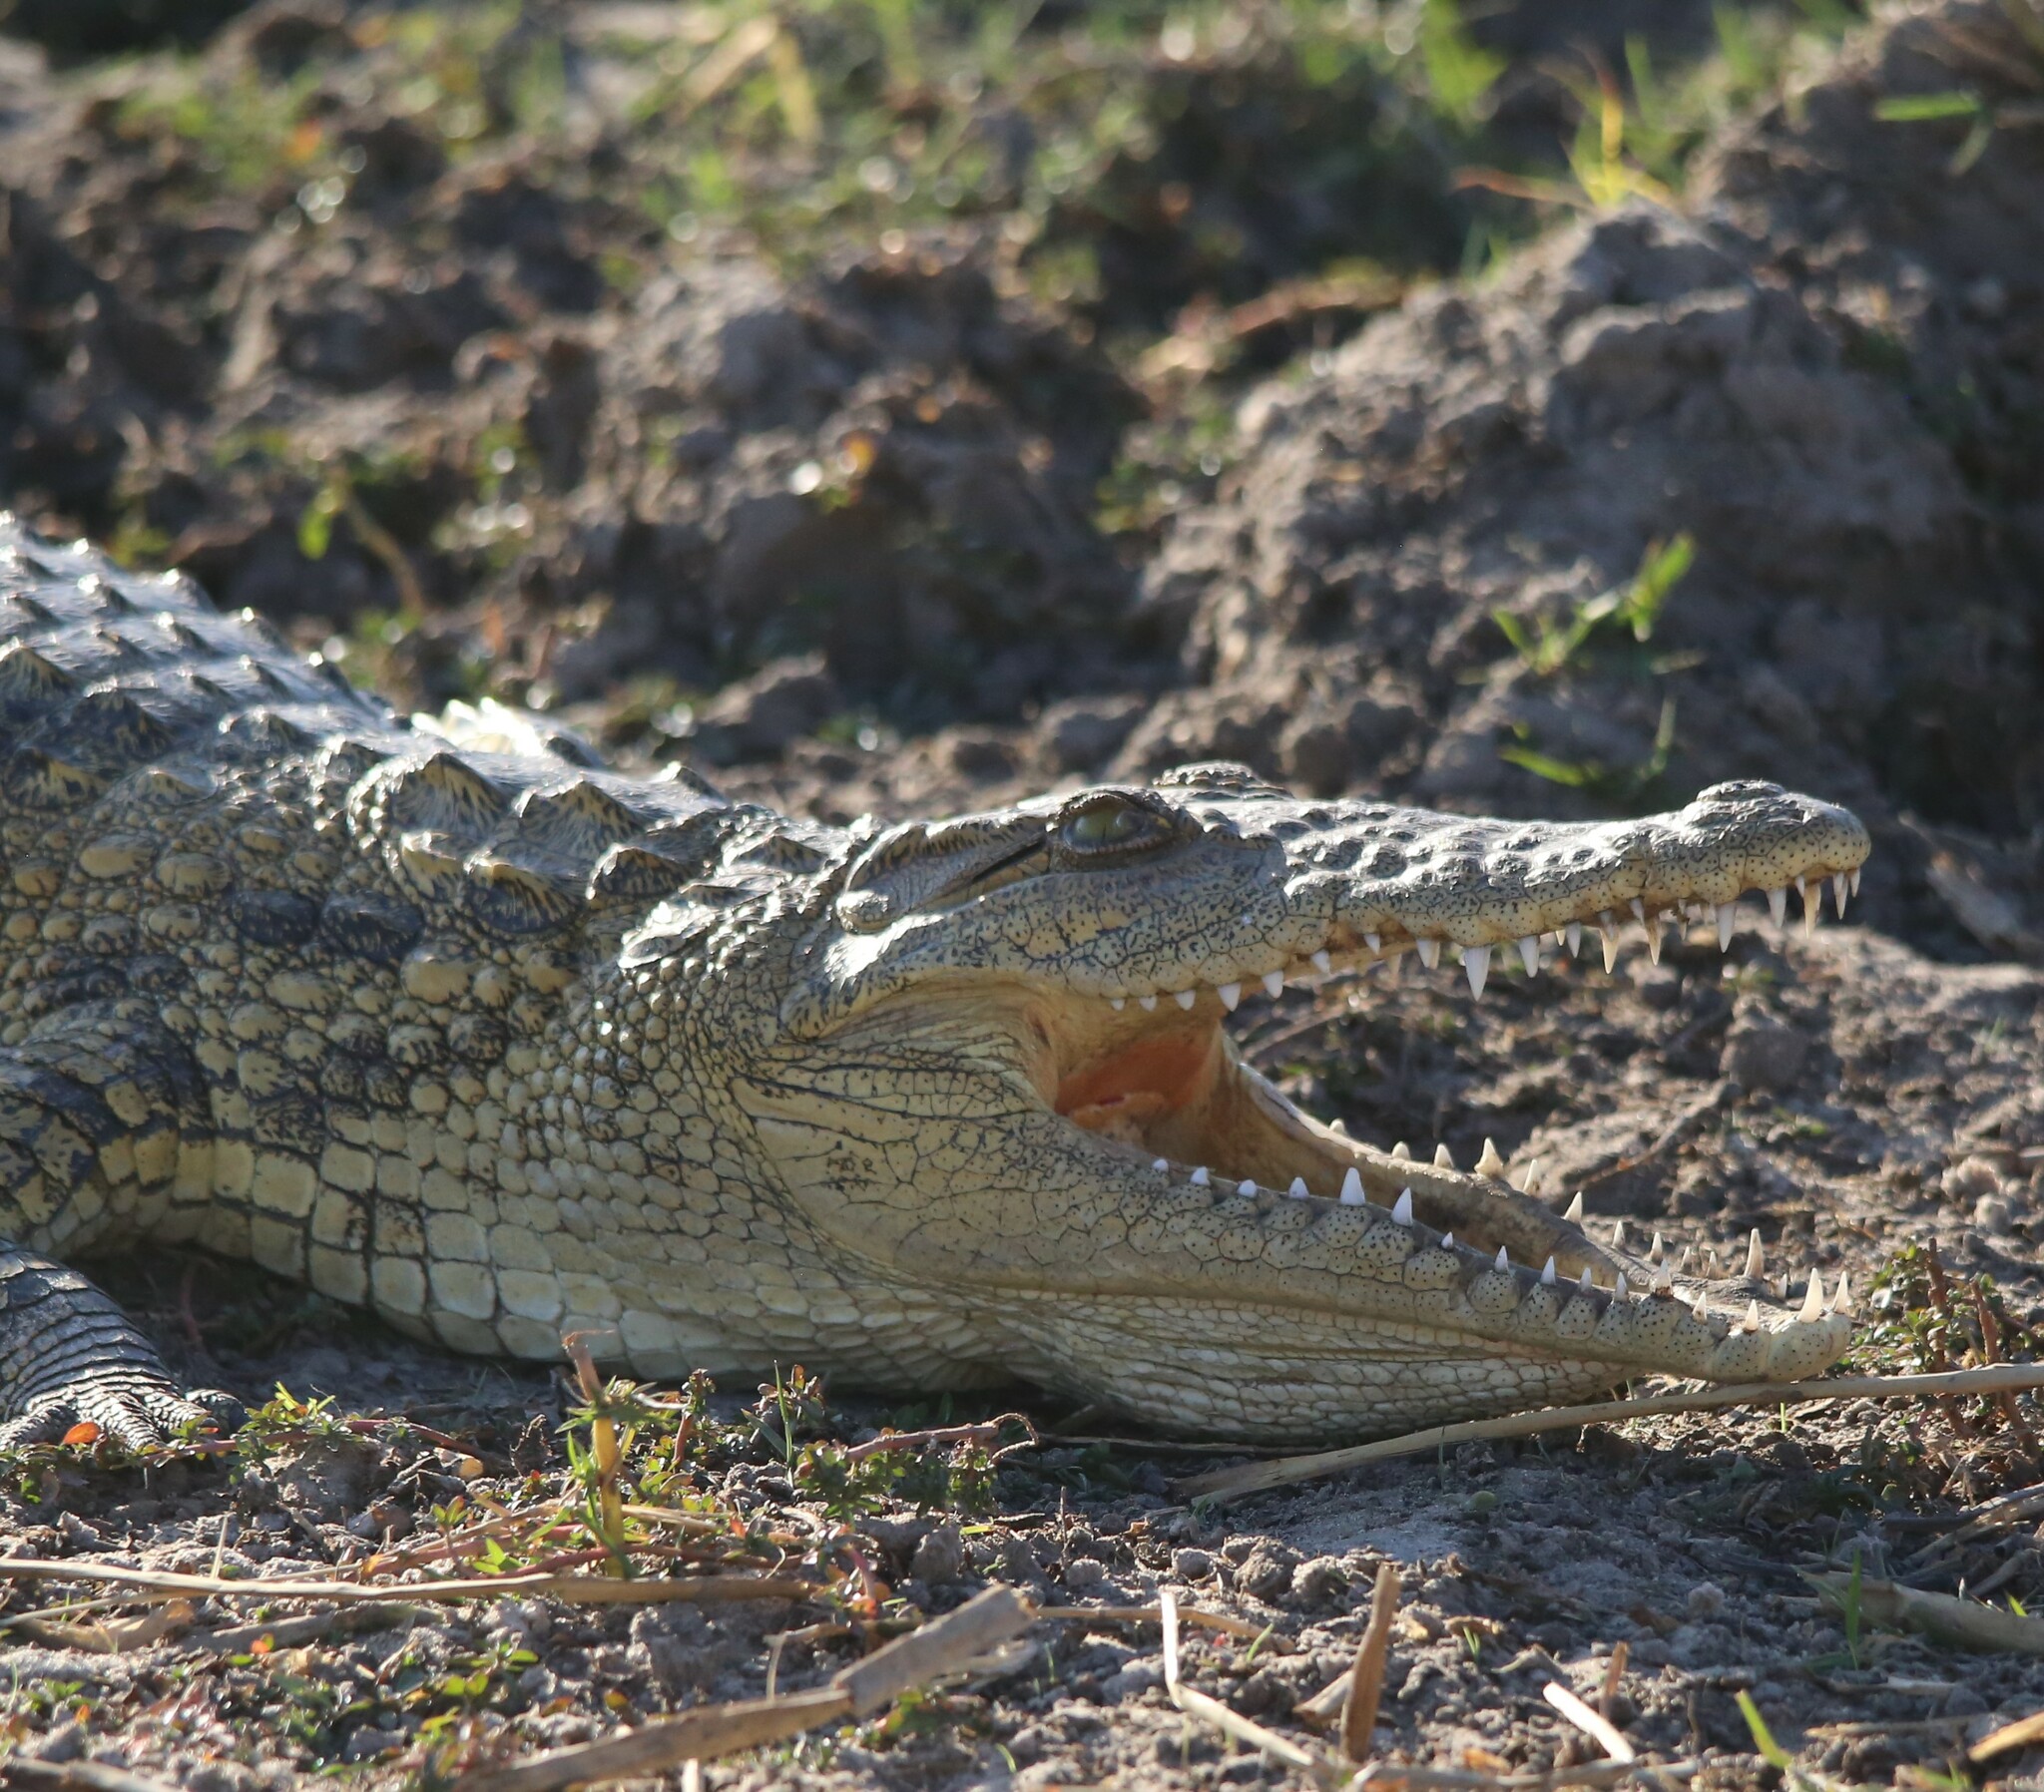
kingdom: Animalia
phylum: Chordata
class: Crocodylia
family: Crocodylidae
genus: Crocodylus
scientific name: Crocodylus niloticus
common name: Nile crocodile
